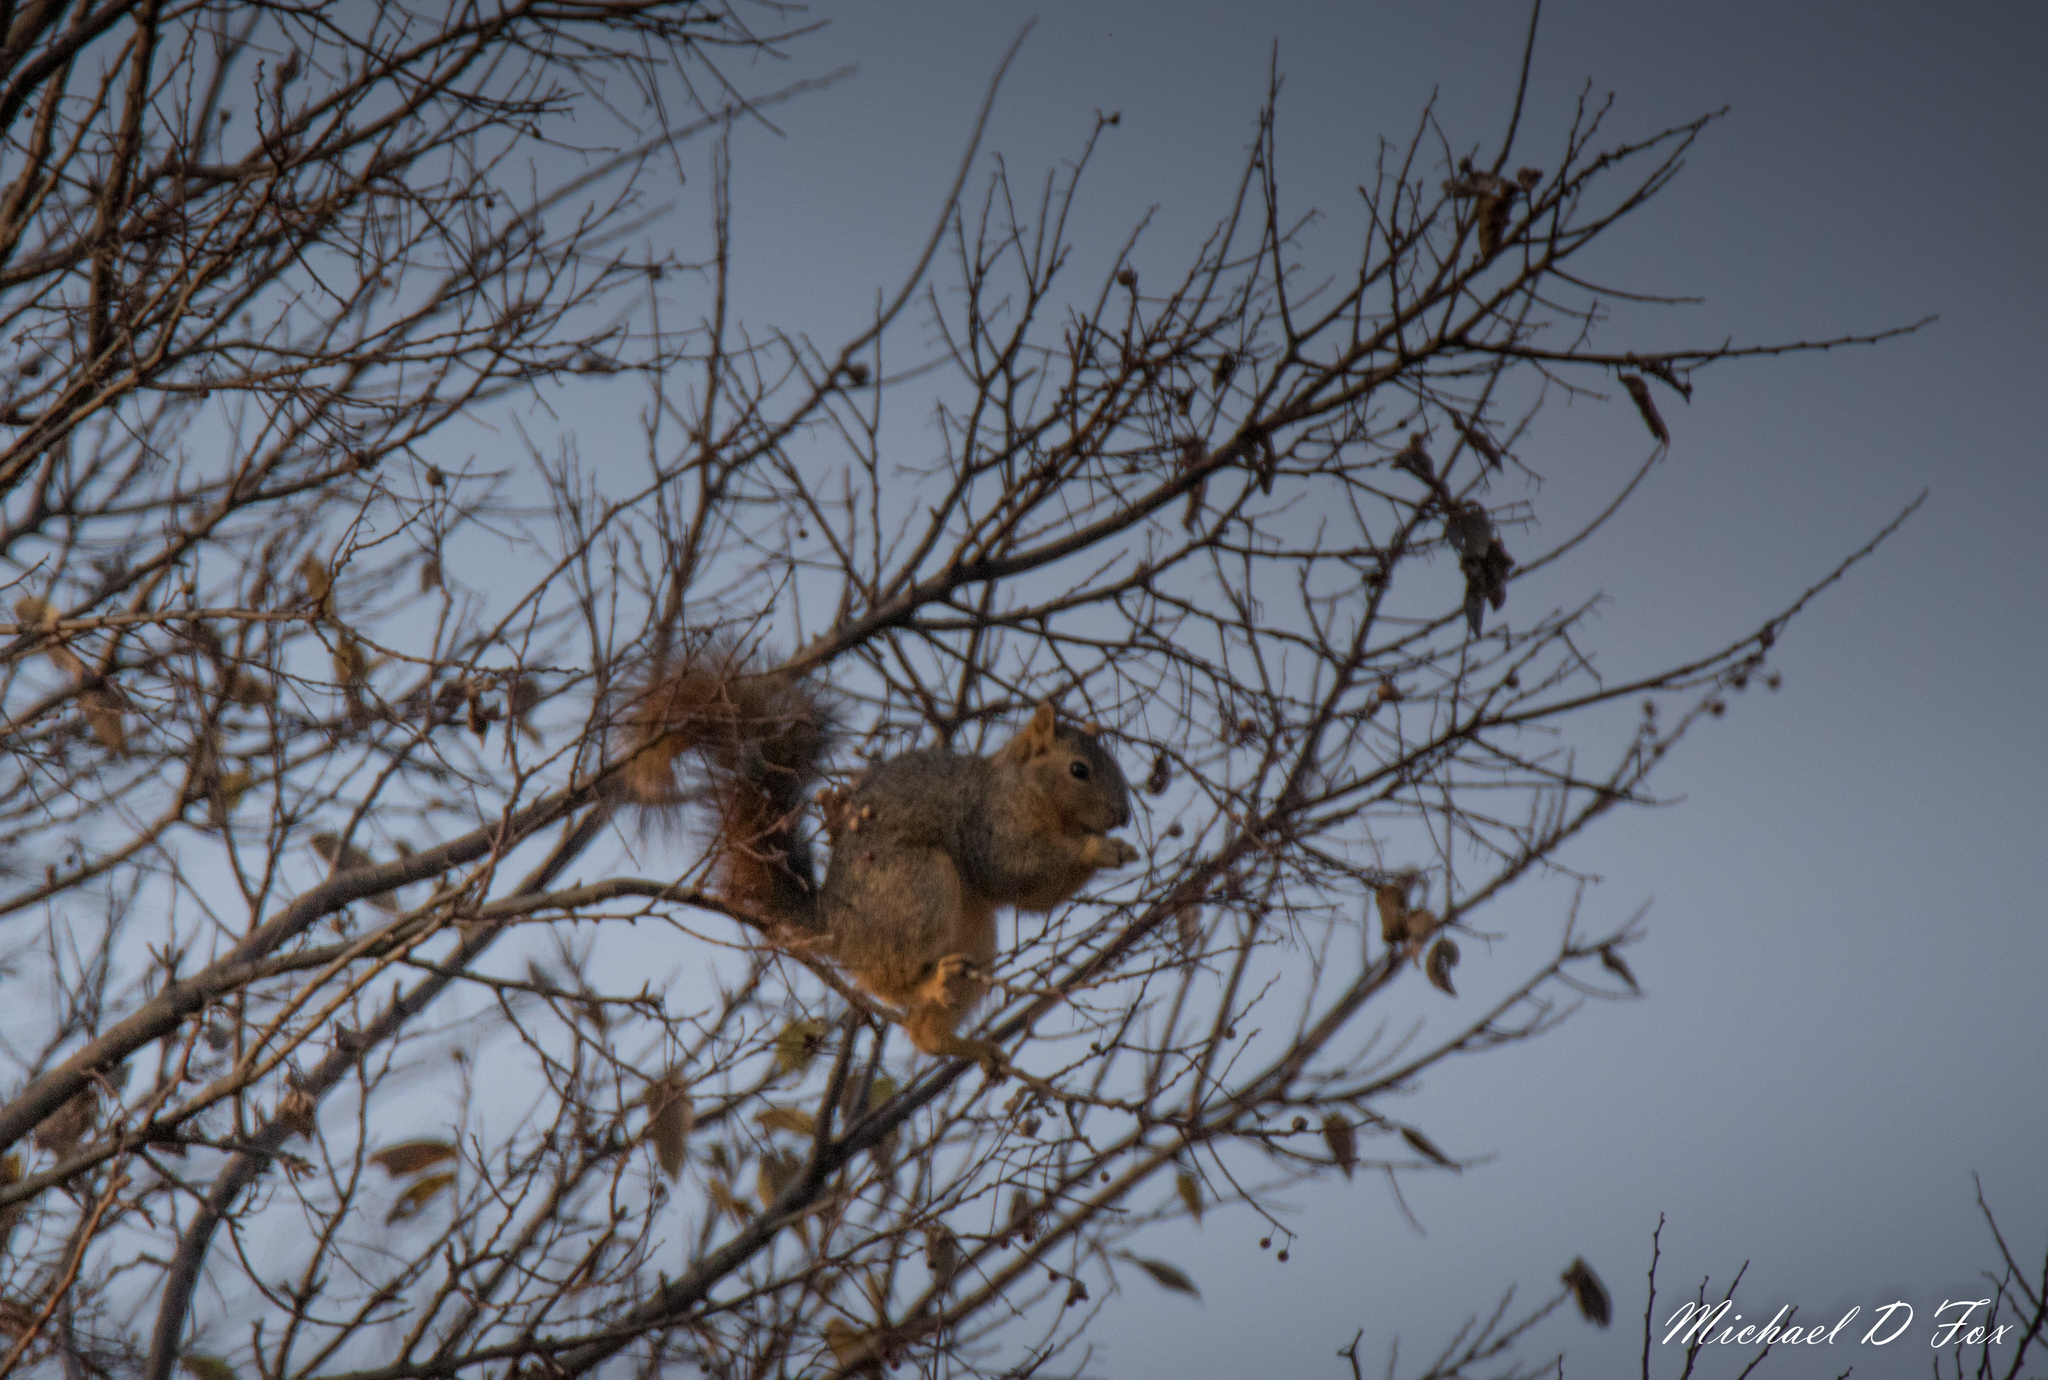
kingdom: Animalia
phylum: Chordata
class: Mammalia
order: Rodentia
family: Sciuridae
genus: Sciurus
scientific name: Sciurus niger
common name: Fox squirrel
